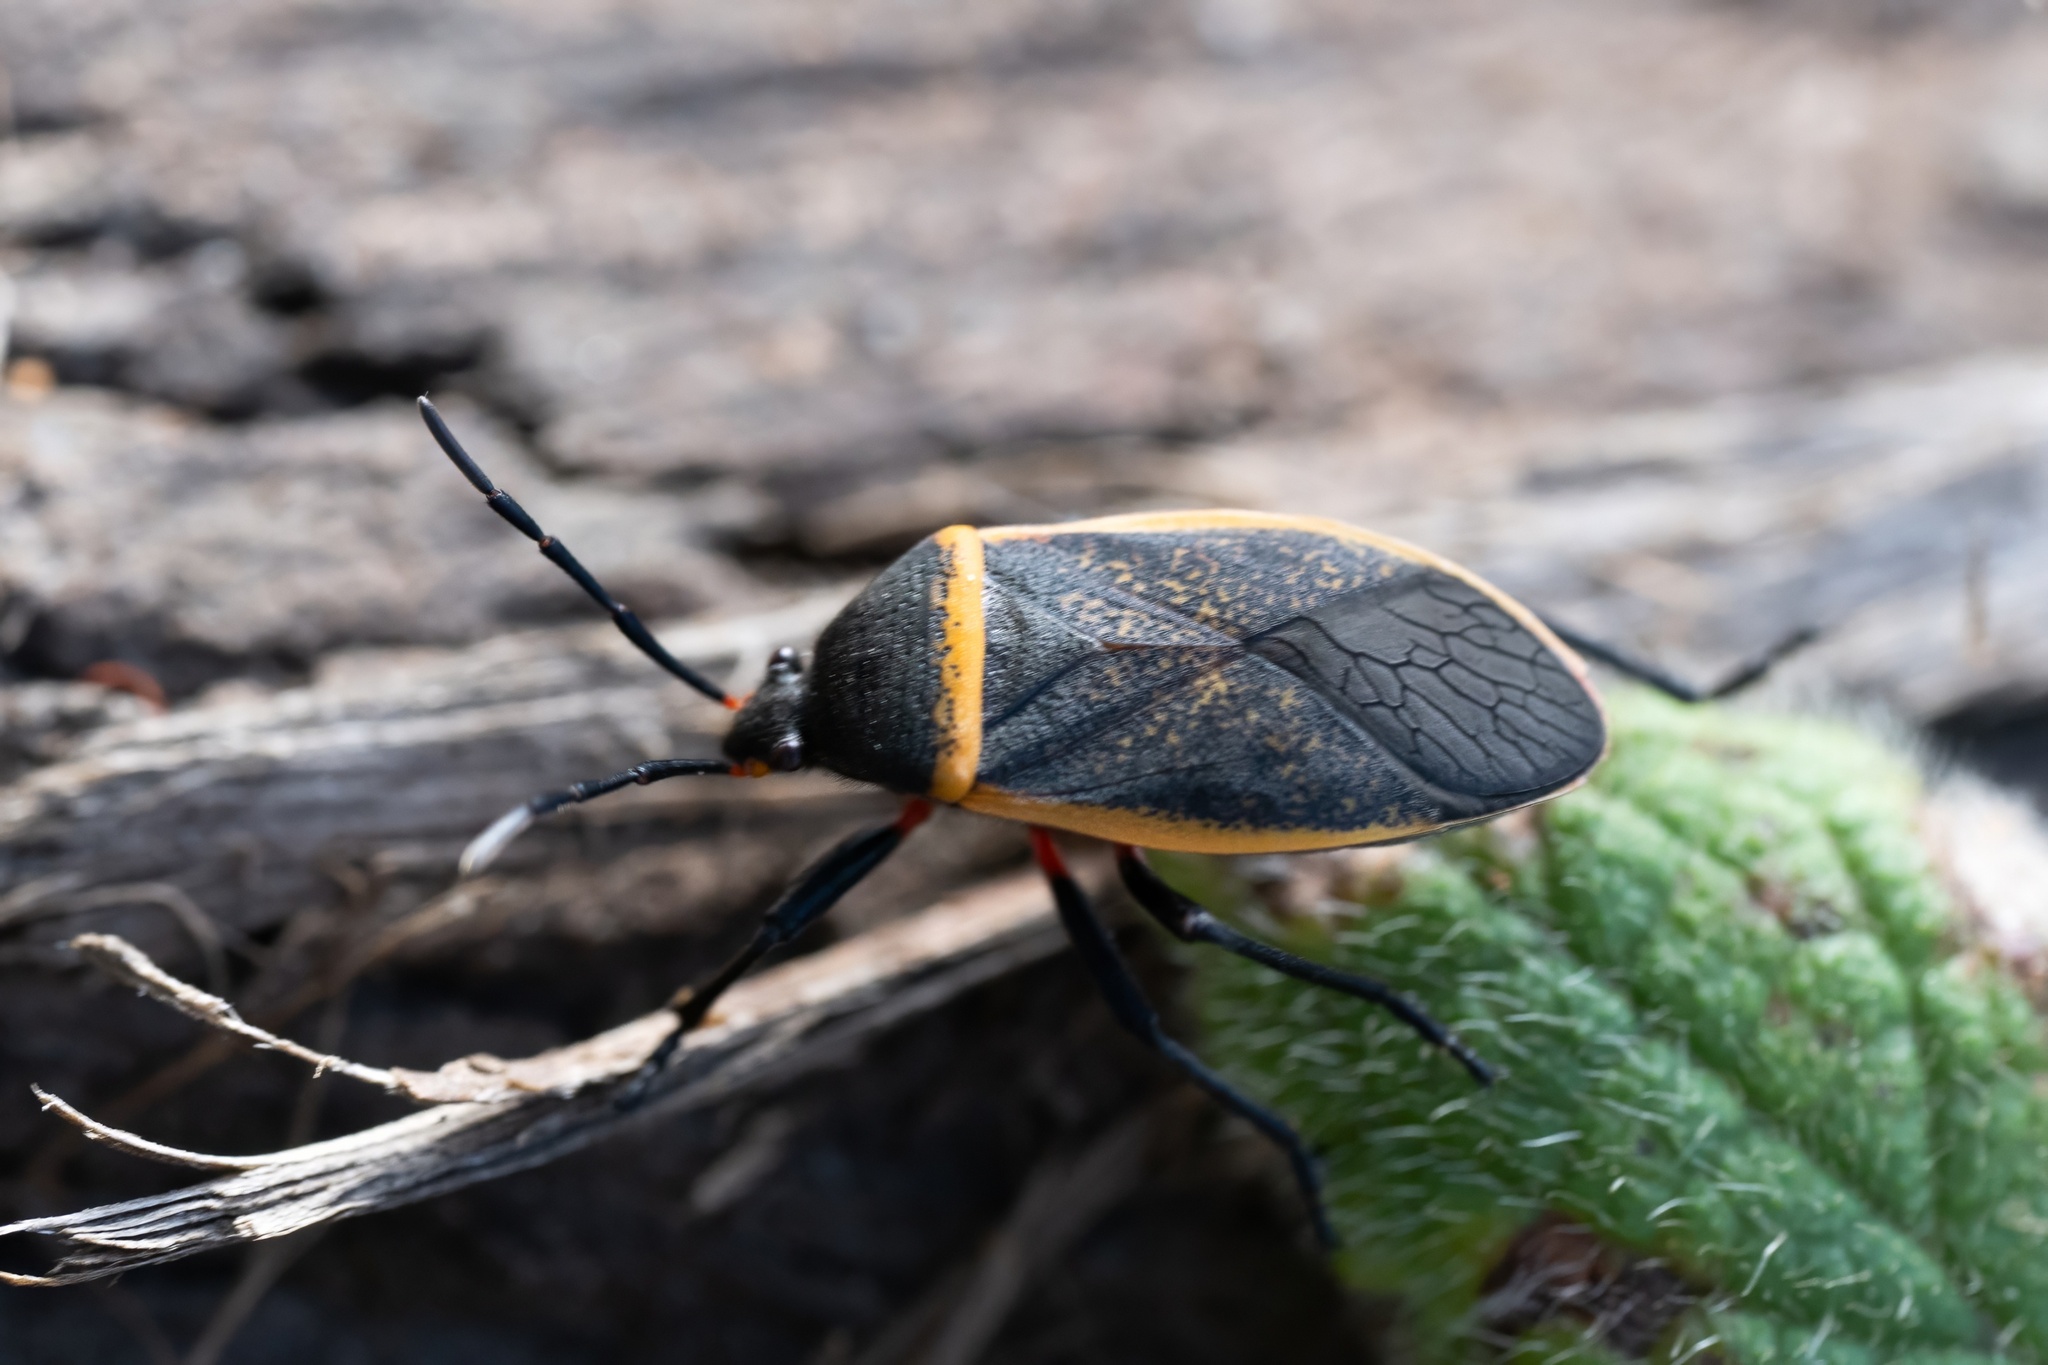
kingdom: Animalia
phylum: Arthropoda
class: Insecta
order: Hemiptera
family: Largidae
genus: Largus
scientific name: Largus californicus
